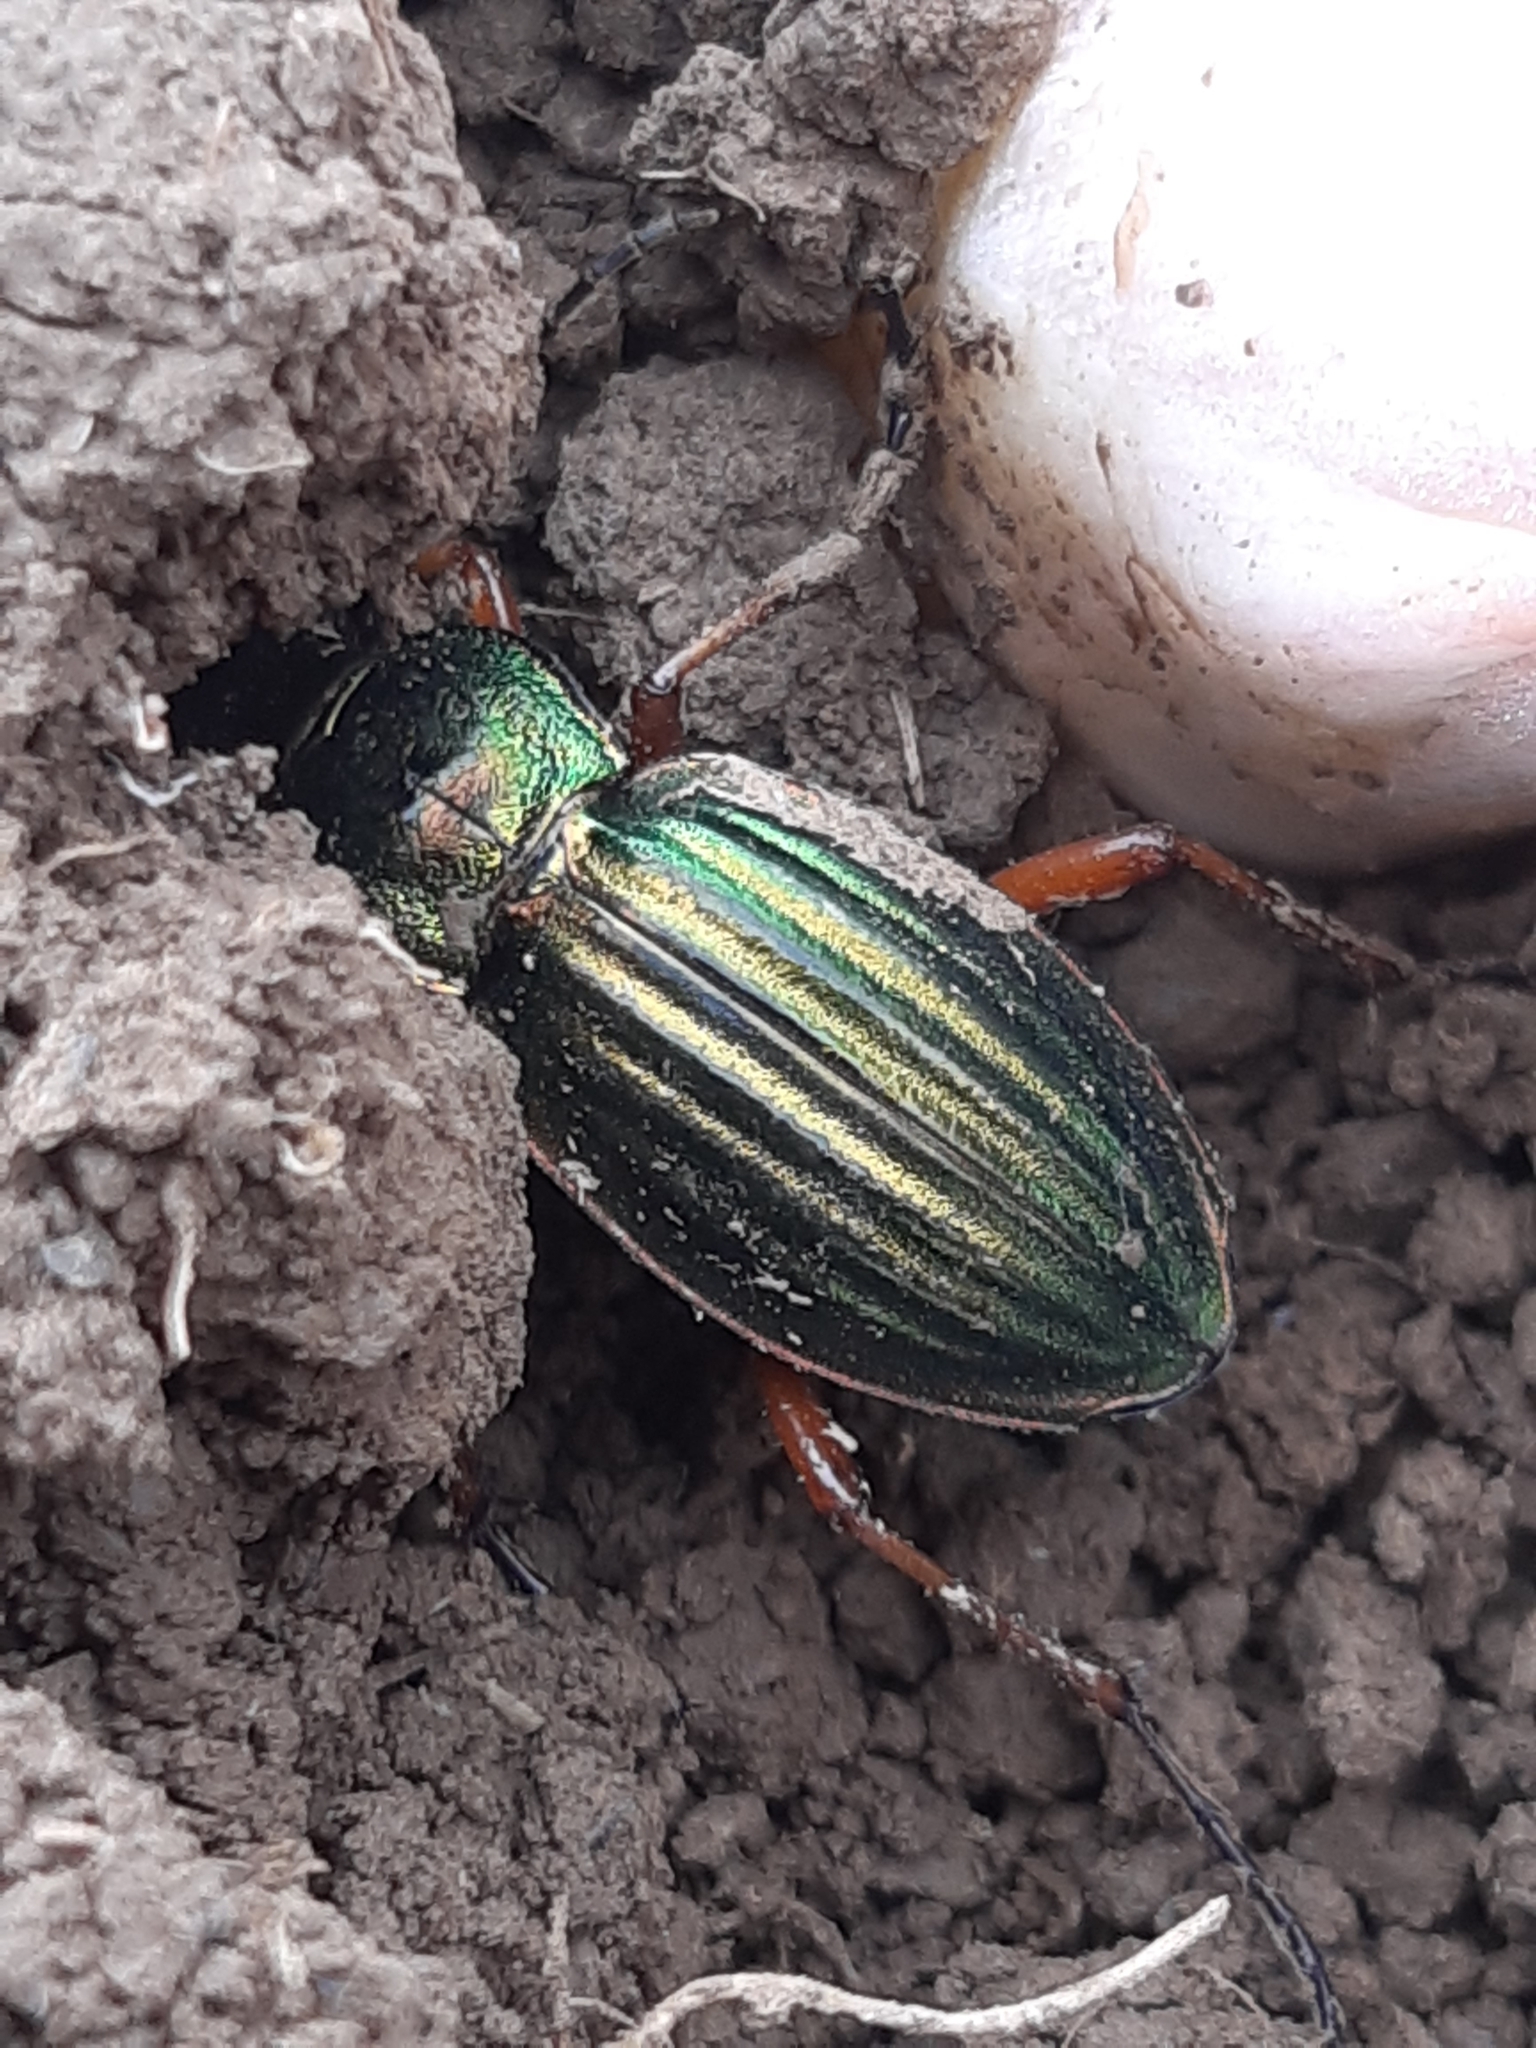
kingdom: Animalia
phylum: Arthropoda
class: Insecta
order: Coleoptera
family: Carabidae
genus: Carabus
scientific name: Carabus auratus
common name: Golden ground beetle
